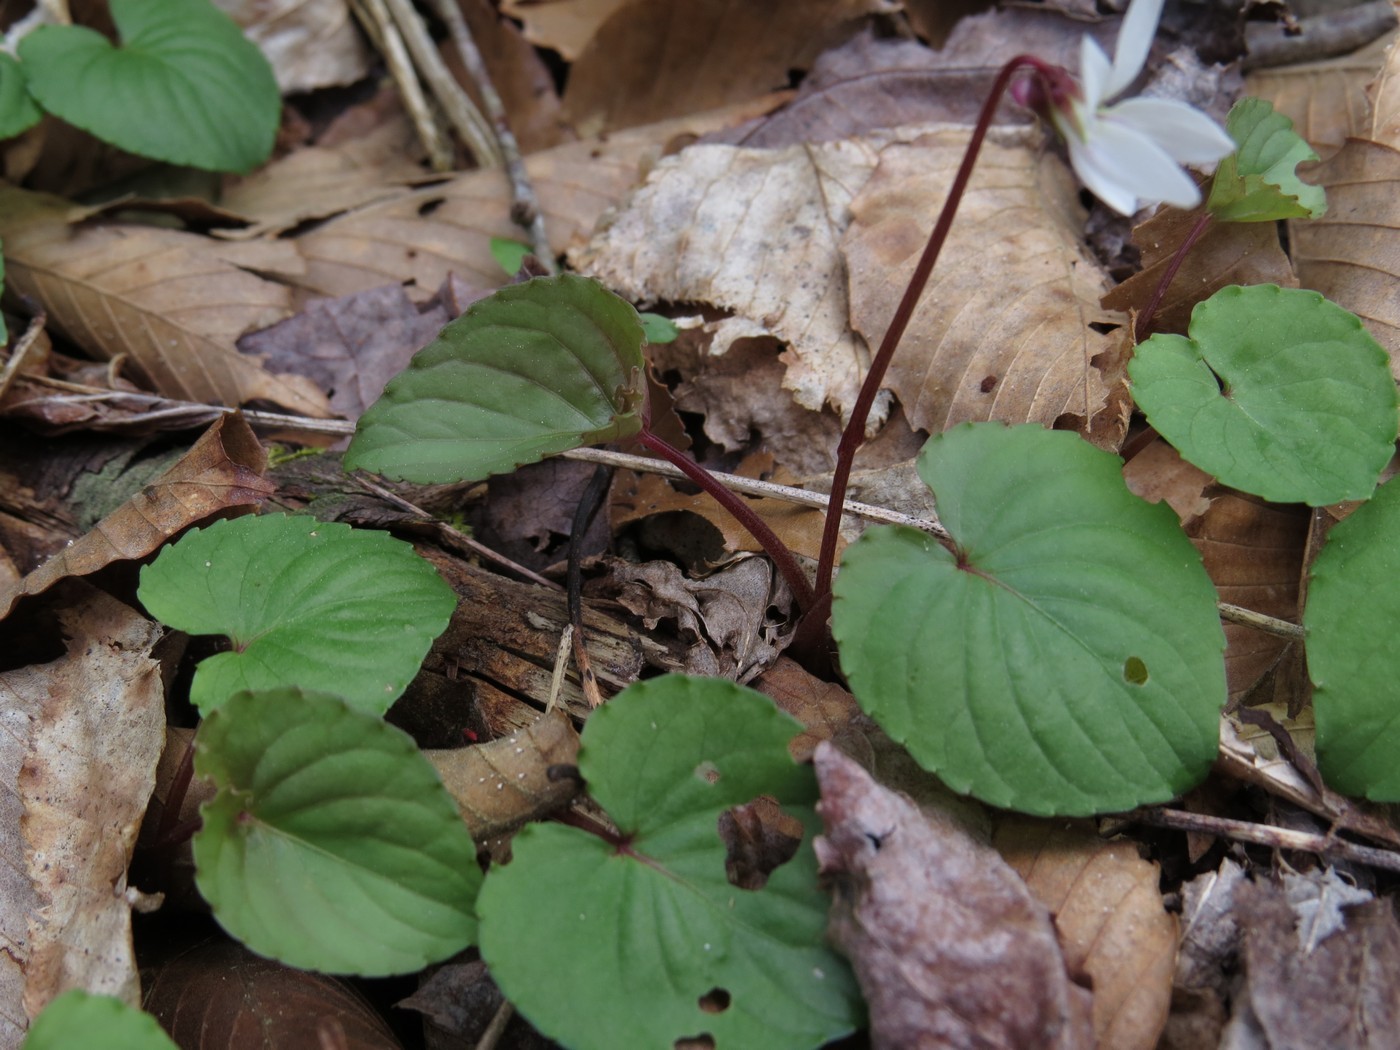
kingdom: Plantae
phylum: Tracheophyta
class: Magnoliopsida
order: Malpighiales
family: Violaceae
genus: Viola
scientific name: Viola blanda
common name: Sweet white violet
